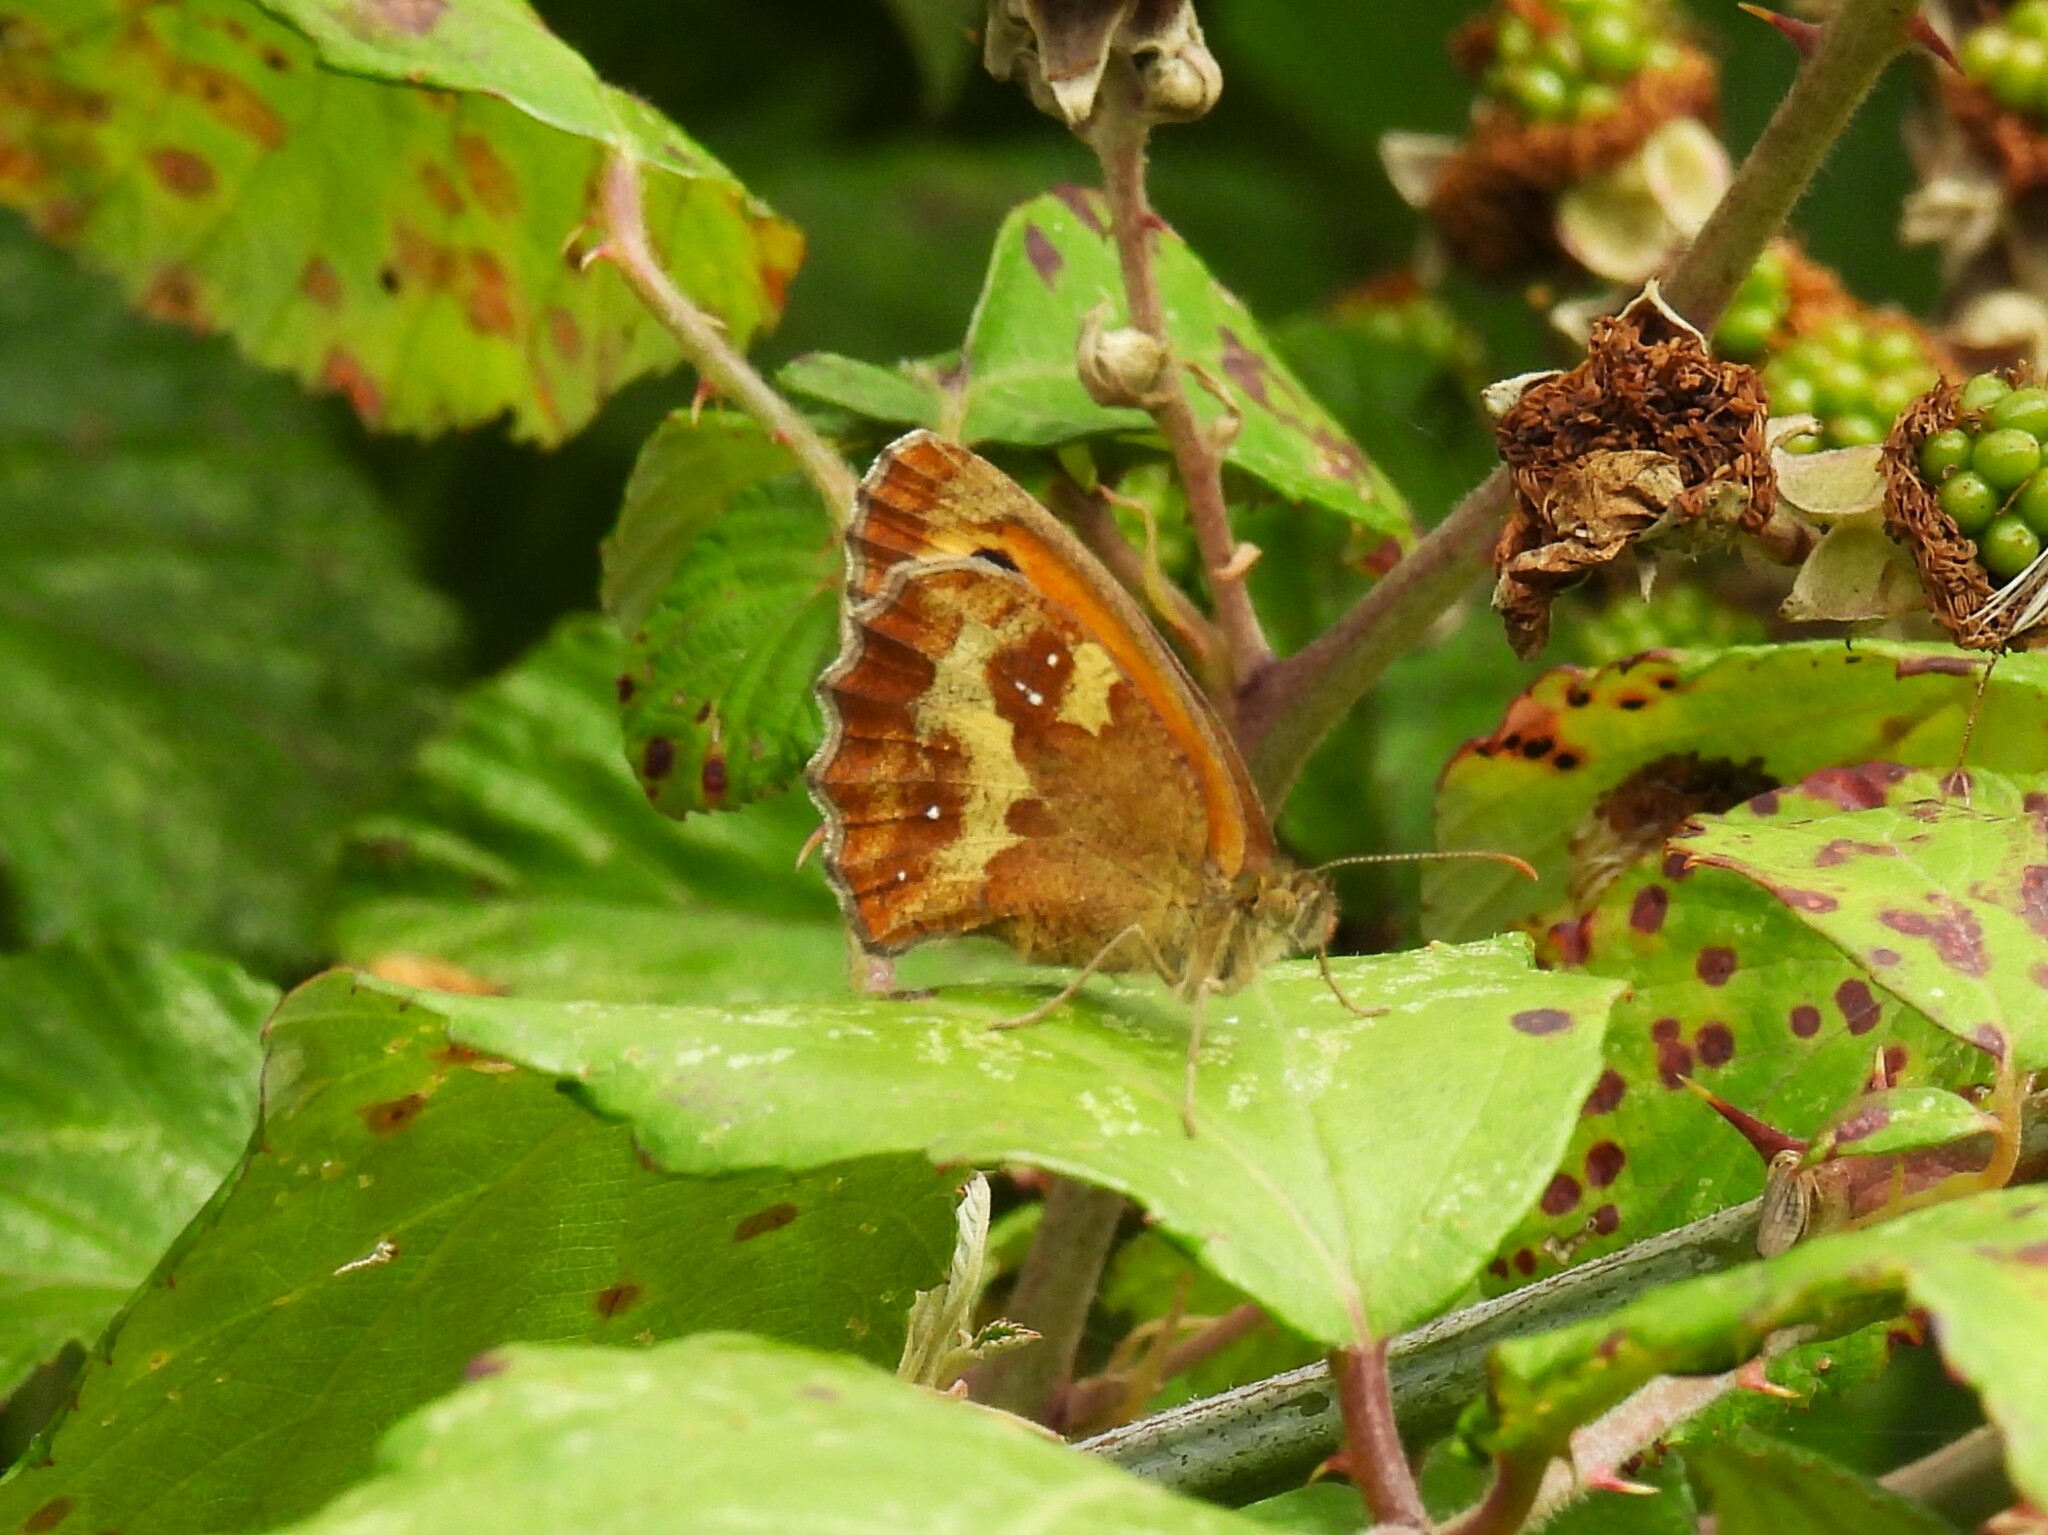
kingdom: Animalia
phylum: Arthropoda
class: Insecta
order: Lepidoptera
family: Nymphalidae
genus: Pyronia
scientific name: Pyronia tithonus
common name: Gatekeeper
